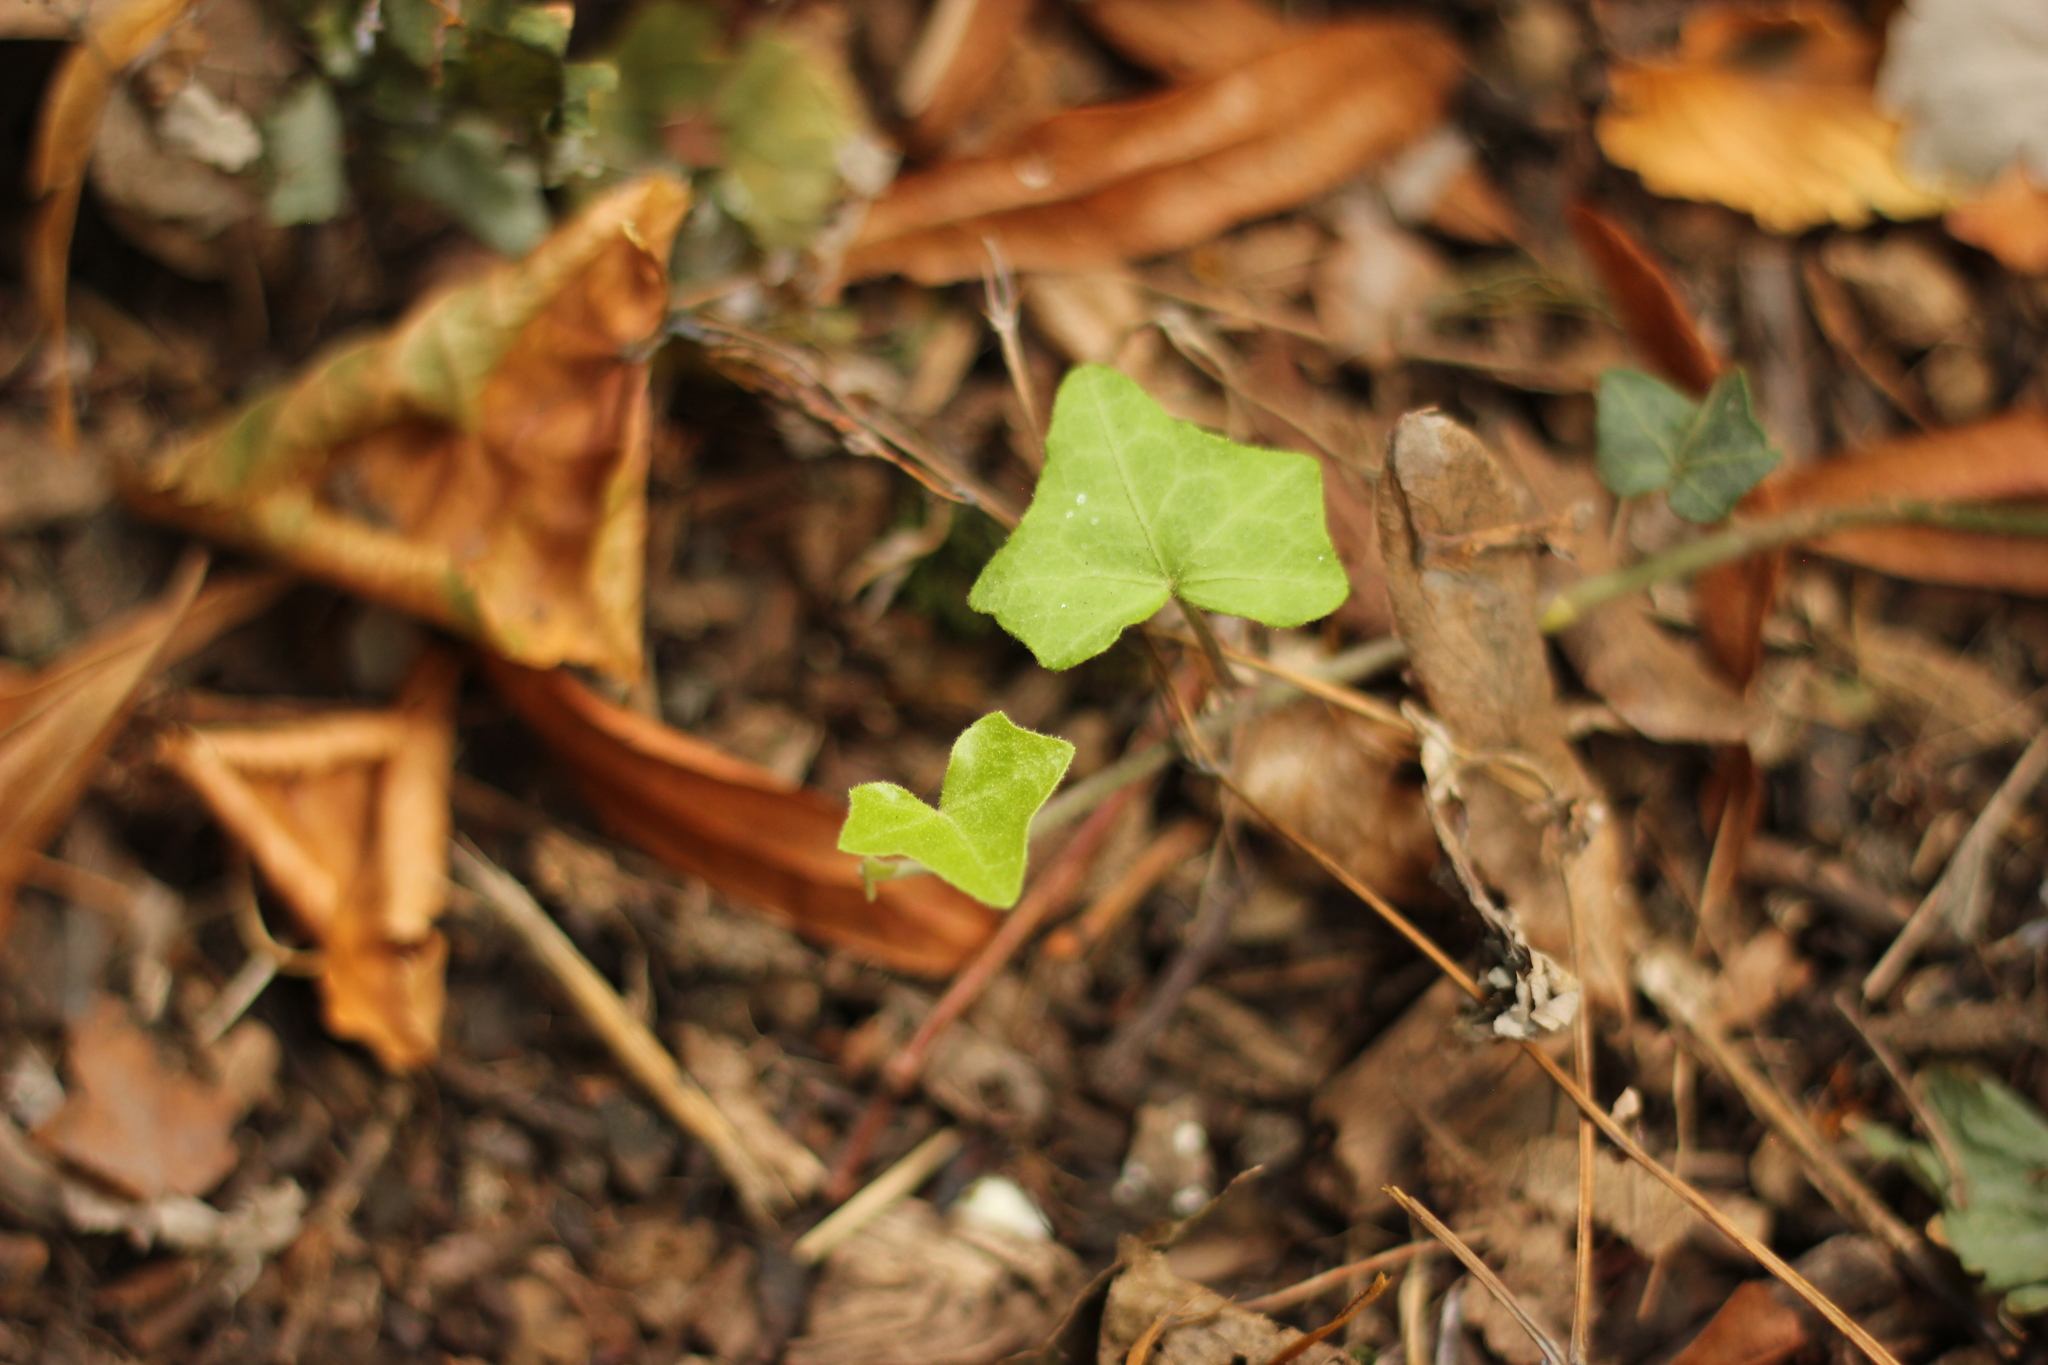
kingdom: Plantae
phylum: Tracheophyta
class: Magnoliopsida
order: Apiales
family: Araliaceae
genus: Hedera
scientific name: Hedera helix
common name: Ivy
